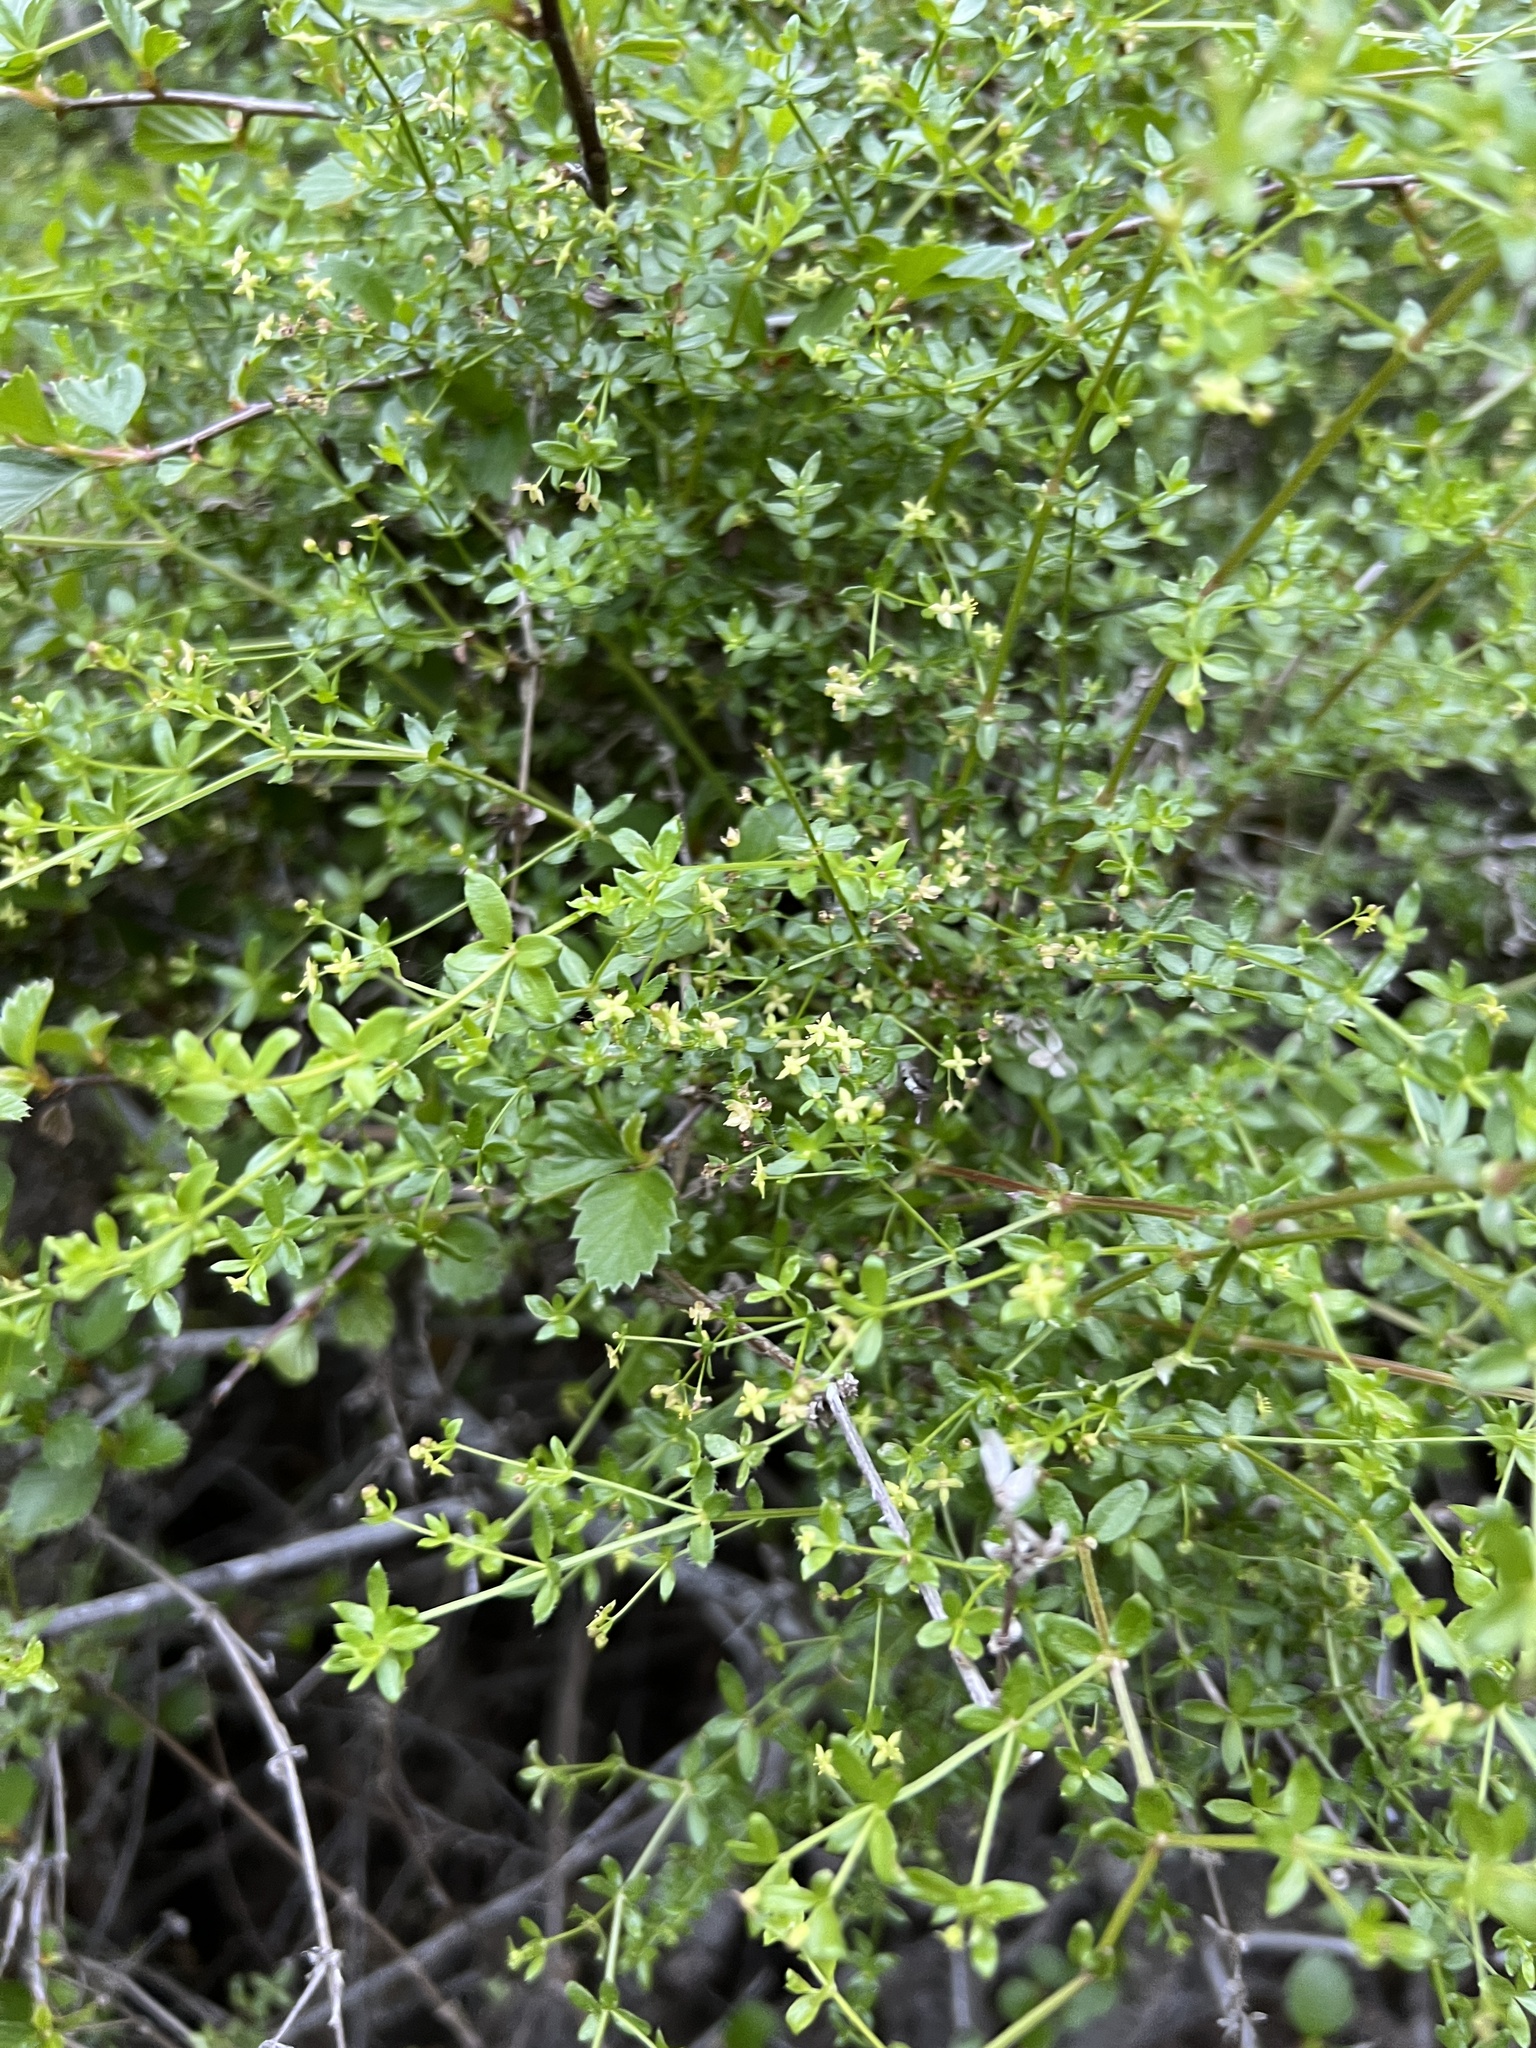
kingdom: Plantae
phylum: Tracheophyta
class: Magnoliopsida
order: Gentianales
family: Rubiaceae
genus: Galium
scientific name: Galium porrigens
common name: Climbing bedstraw
